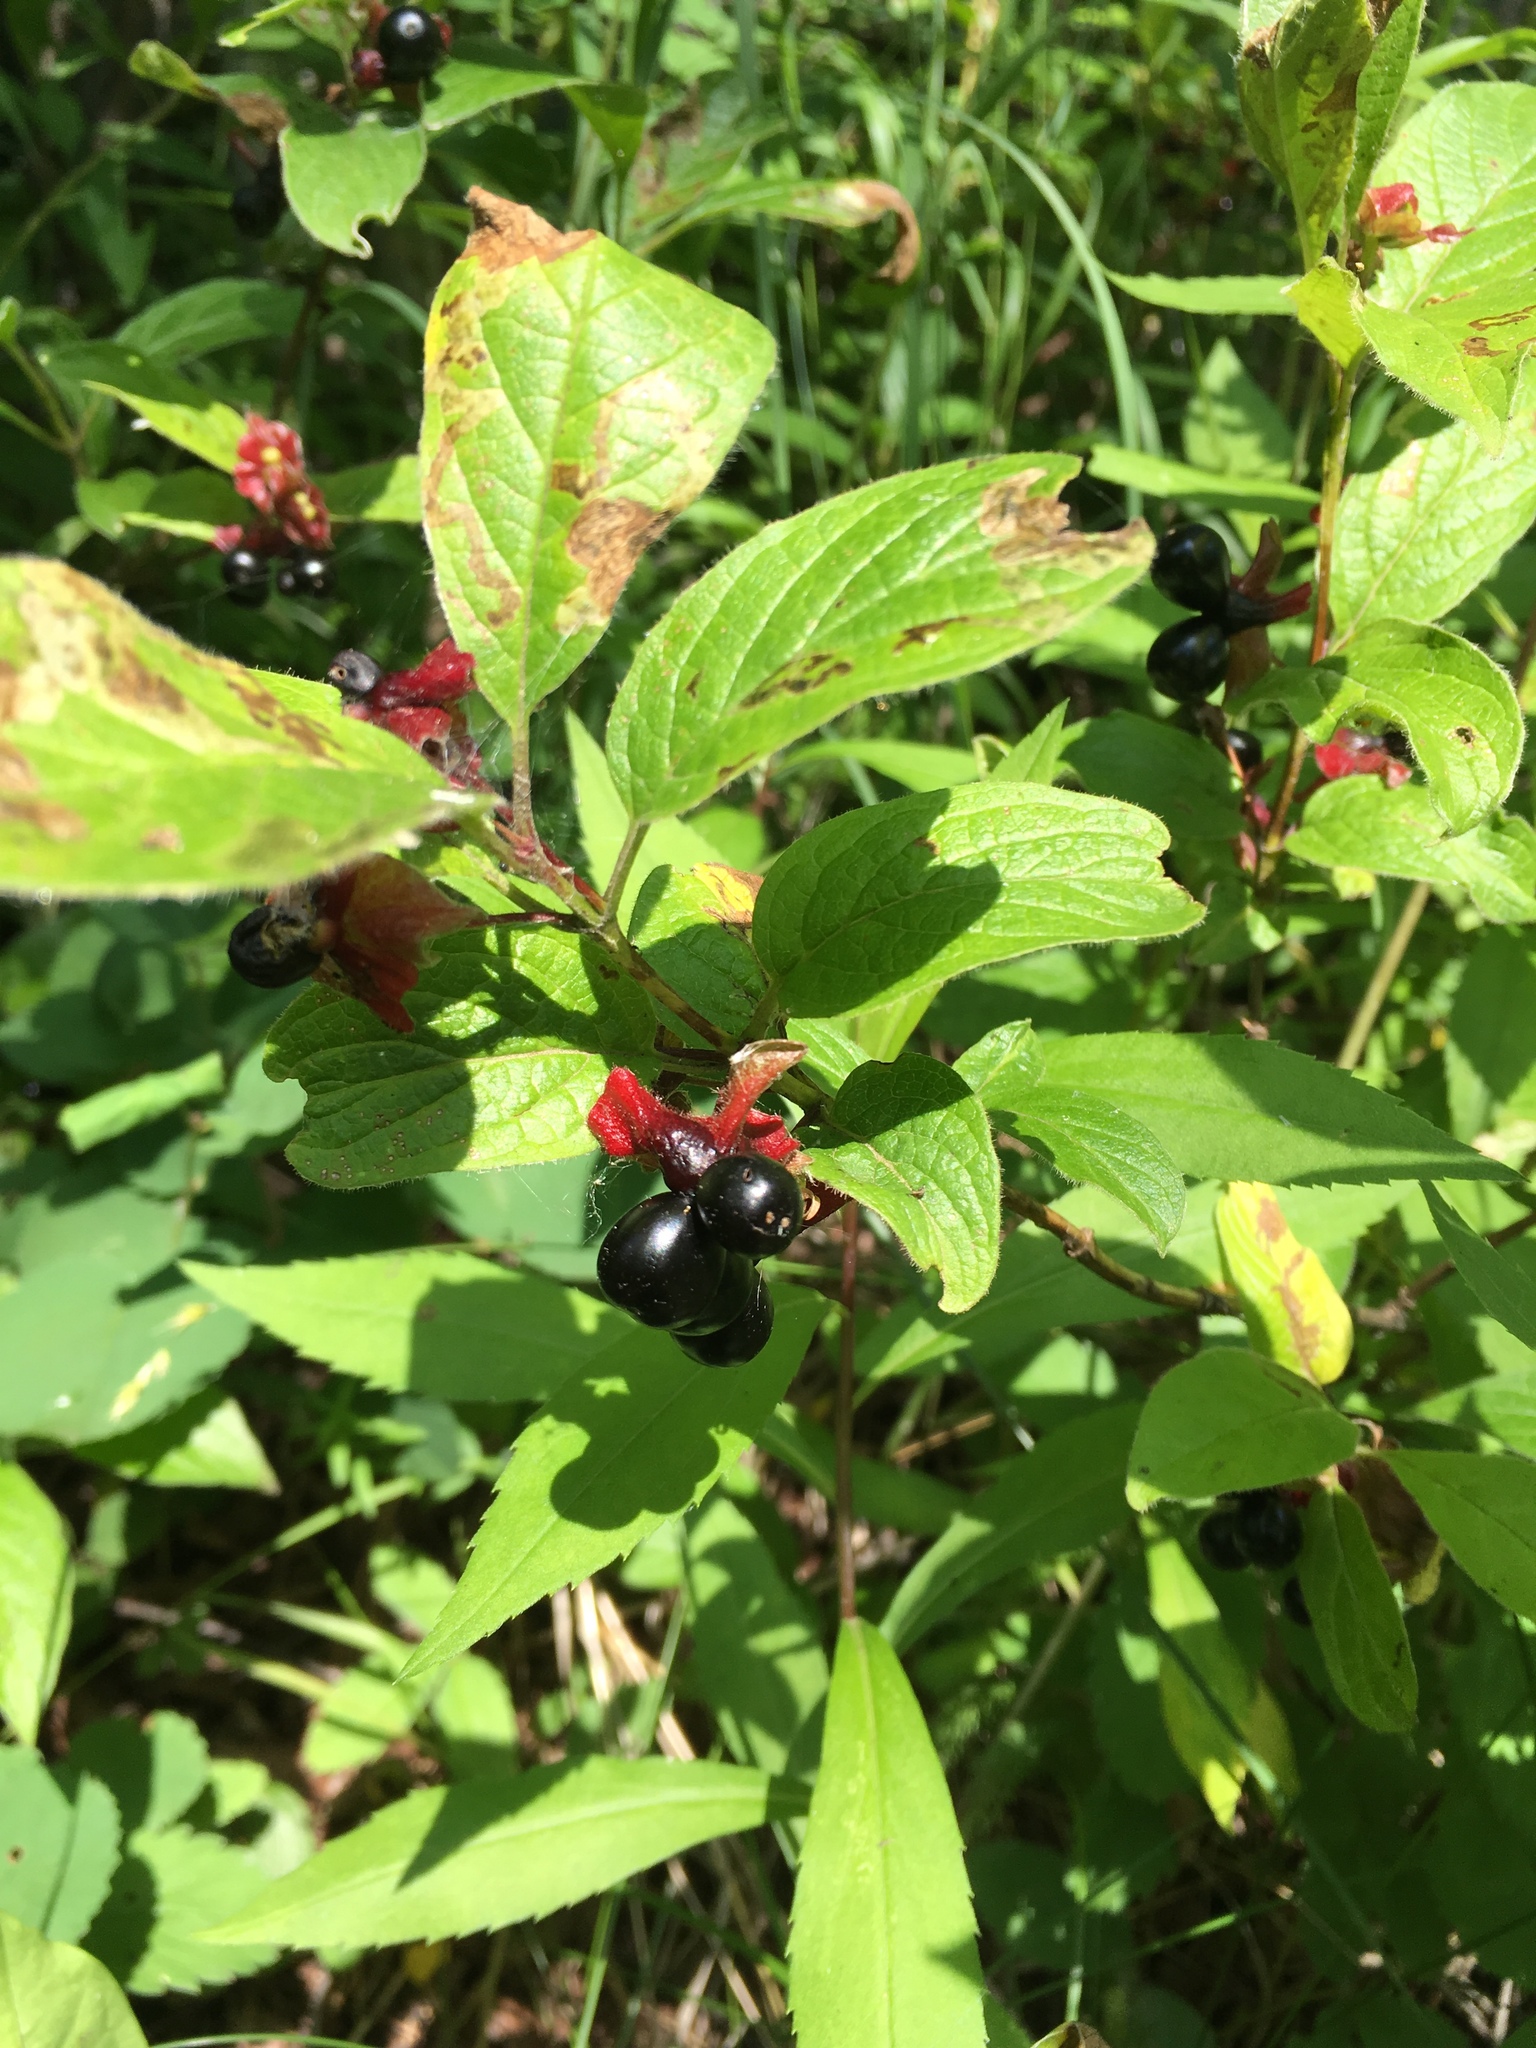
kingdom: Plantae
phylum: Tracheophyta
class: Magnoliopsida
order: Dipsacales
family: Caprifoliaceae
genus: Lonicera
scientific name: Lonicera involucrata
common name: Californian honeysuckle
